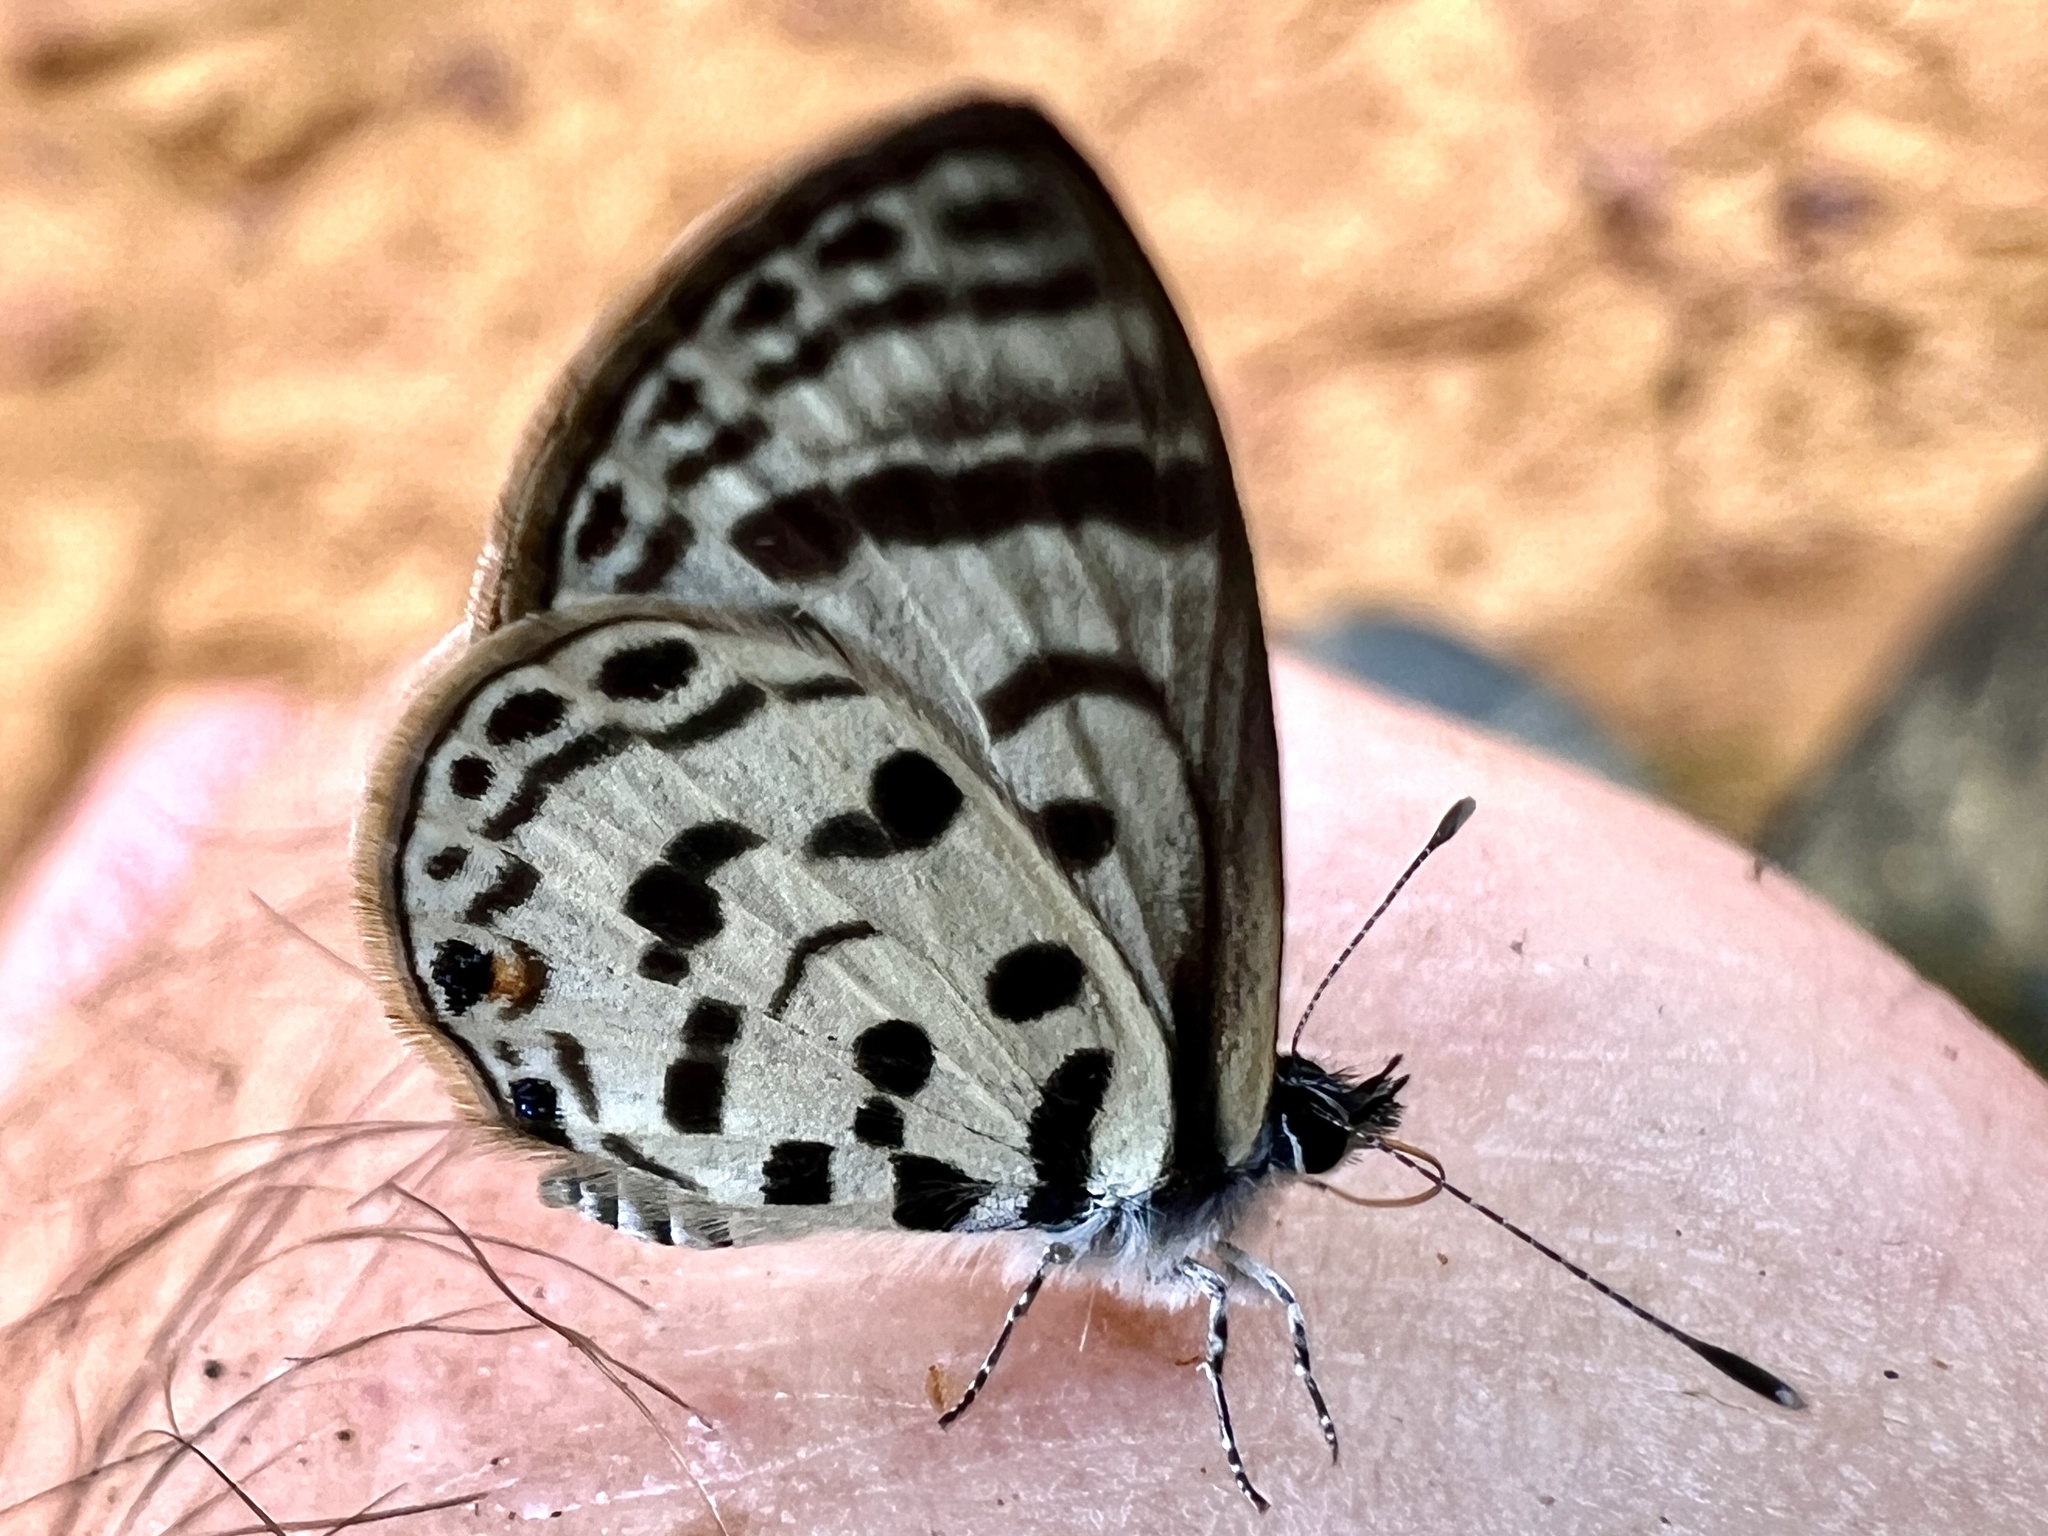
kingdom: Animalia
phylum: Arthropoda
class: Insecta
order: Lepidoptera
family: Lycaenidae
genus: Azanus
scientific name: Azanus mirza
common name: Mirza babul blue
